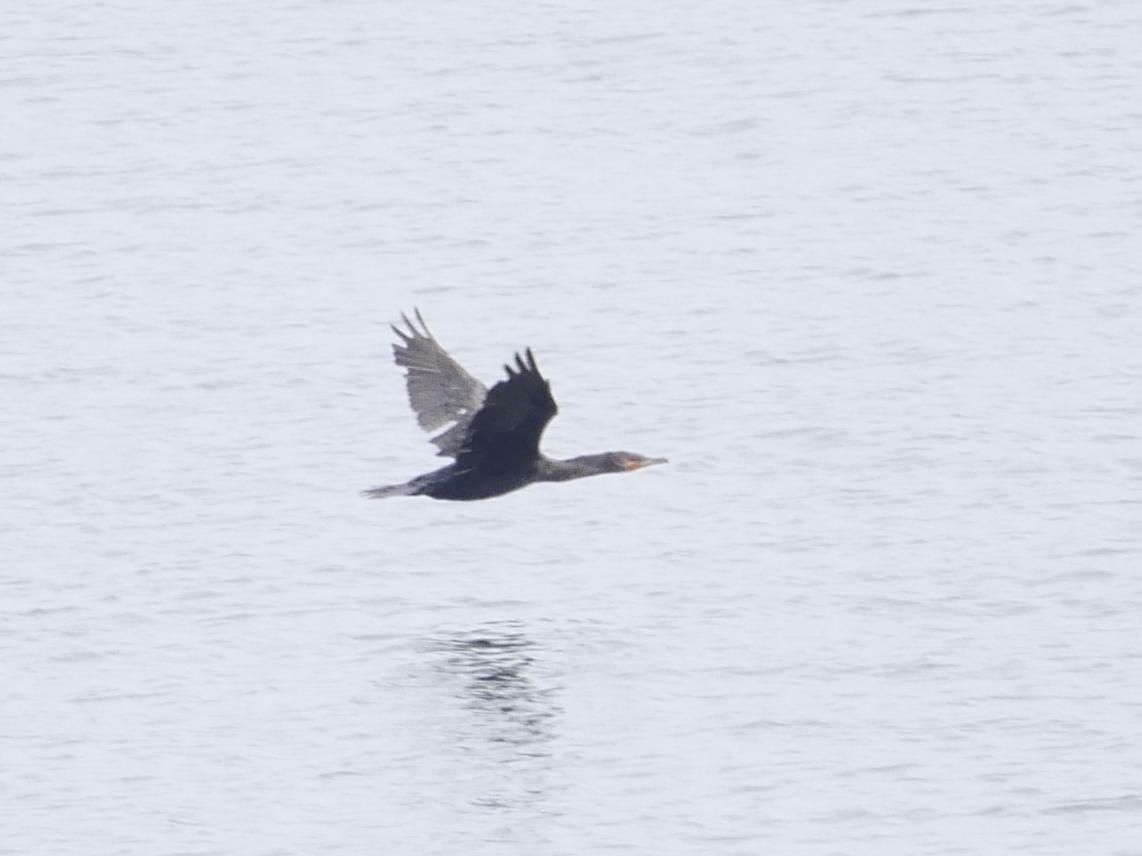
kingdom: Animalia
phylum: Chordata
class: Aves
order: Suliformes
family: Phalacrocoracidae
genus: Phalacrocorax
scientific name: Phalacrocorax auritus
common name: Double-crested cormorant
